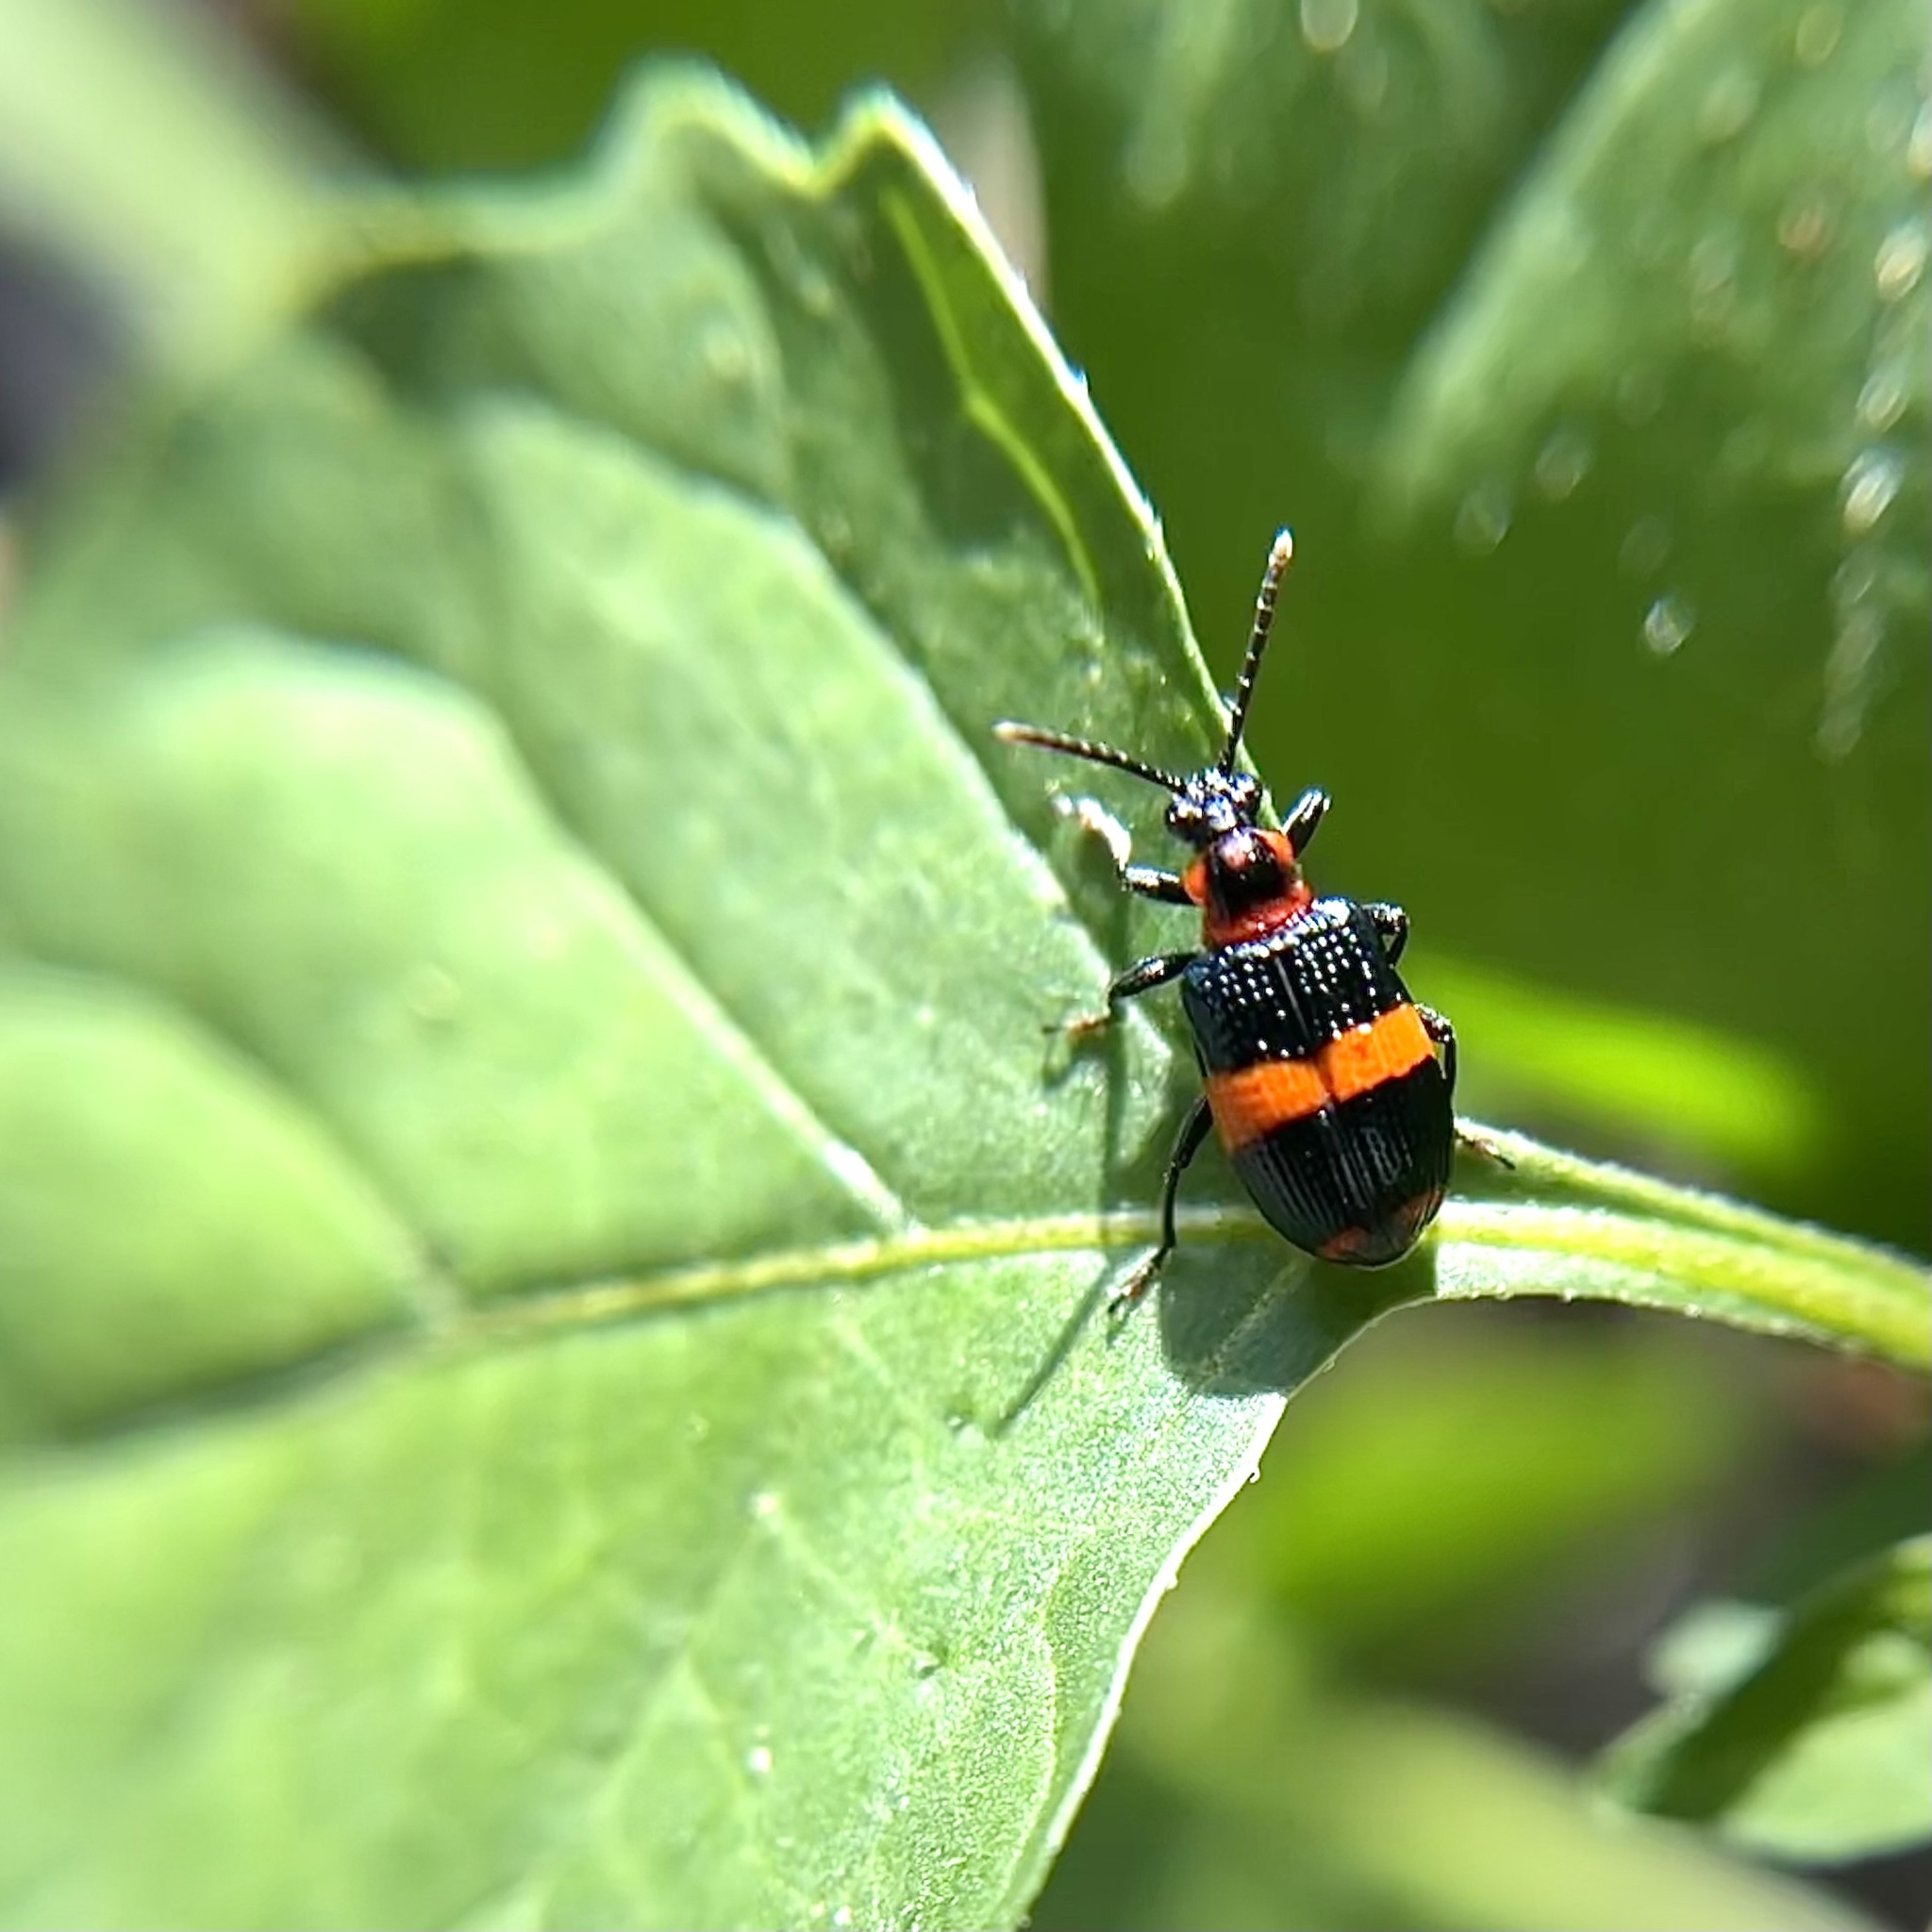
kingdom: Animalia
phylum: Arthropoda
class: Insecta
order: Coleoptera
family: Chrysomelidae
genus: Lema
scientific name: Lema solani
